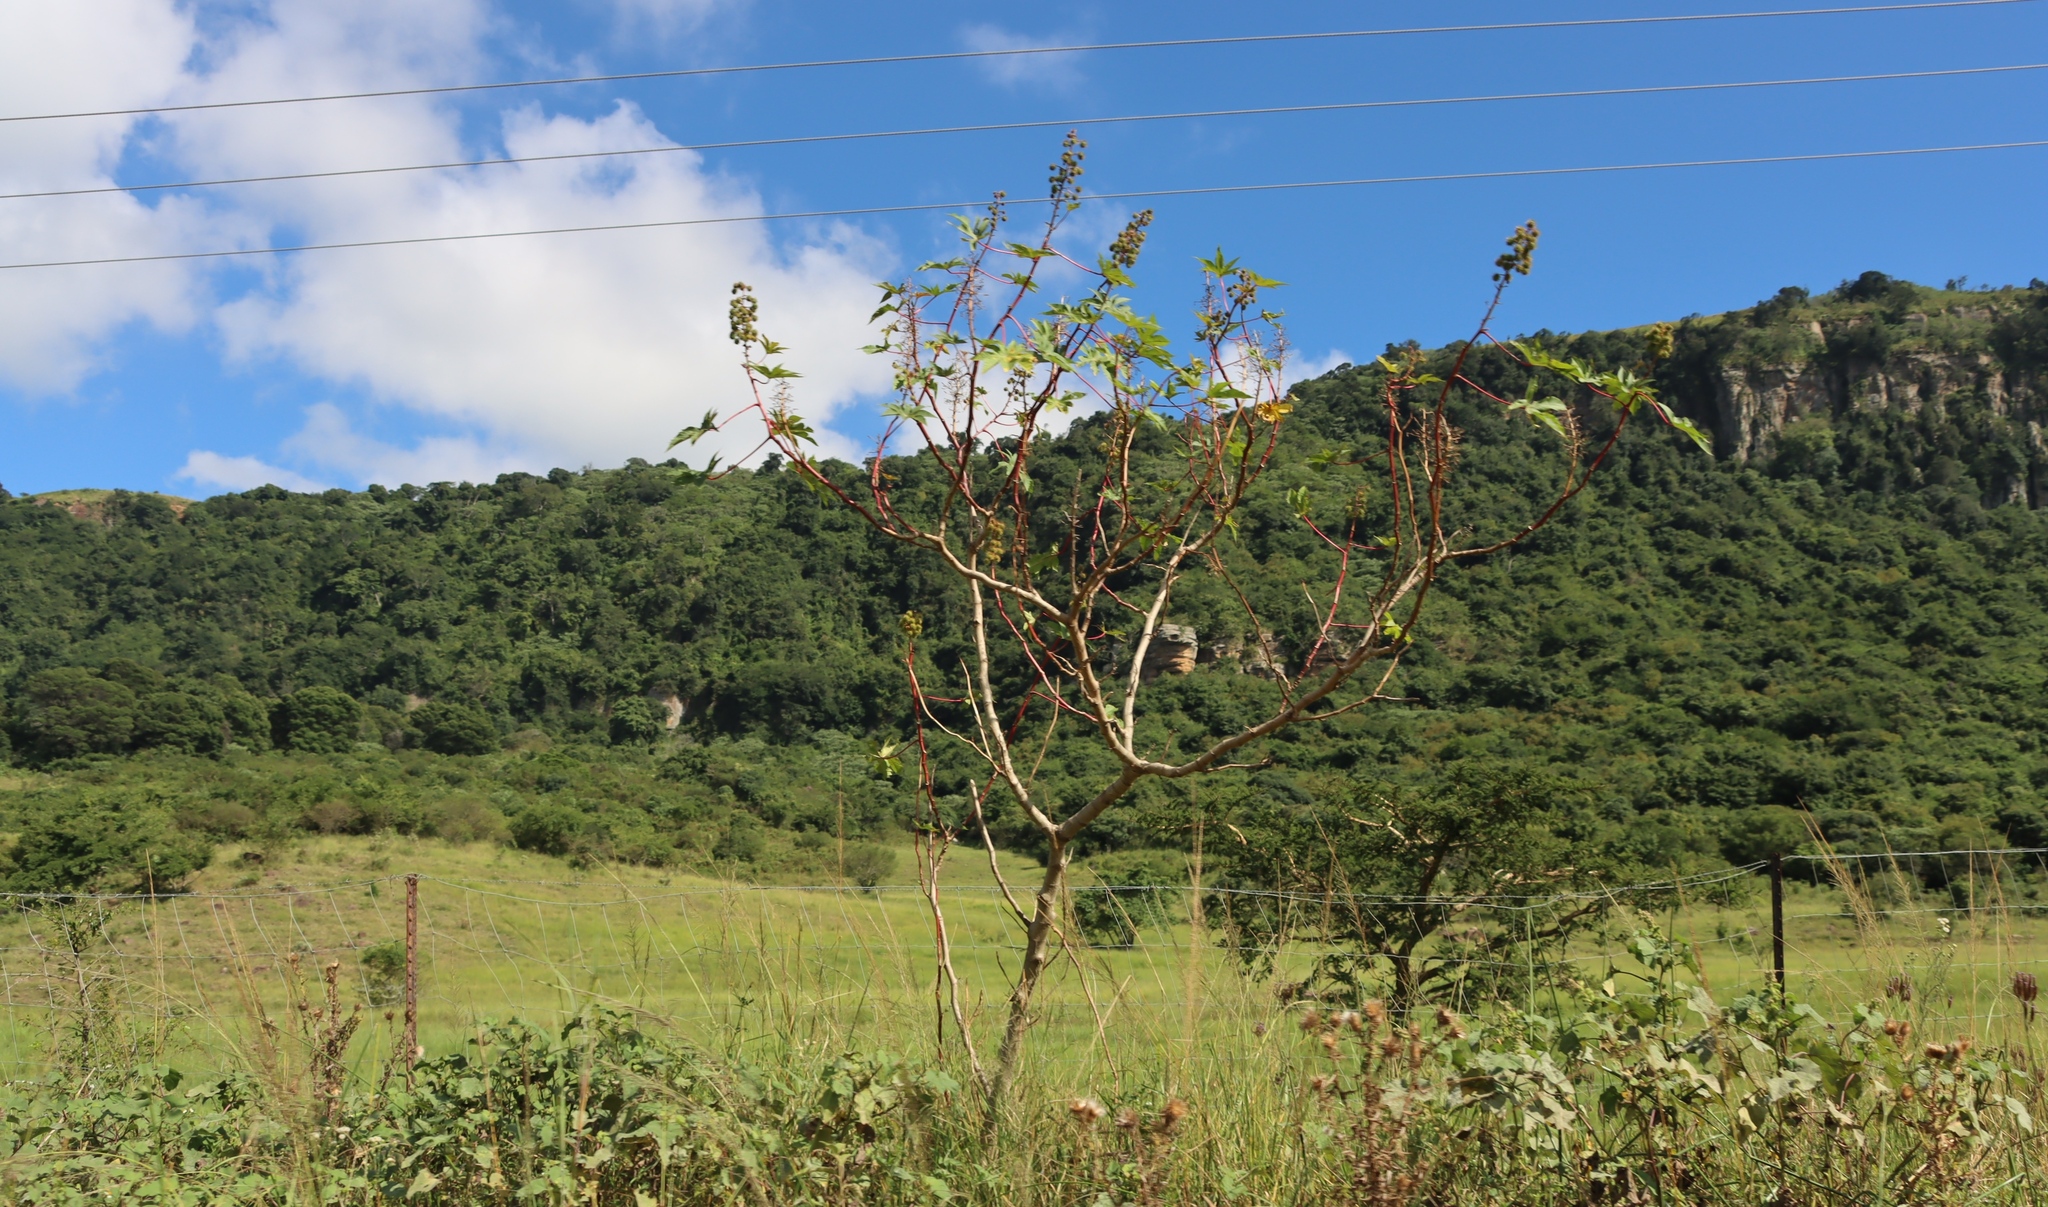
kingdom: Plantae
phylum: Tracheophyta
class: Magnoliopsida
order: Fabales
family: Fabaceae
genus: Pseudarthria
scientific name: Pseudarthria hookeri
